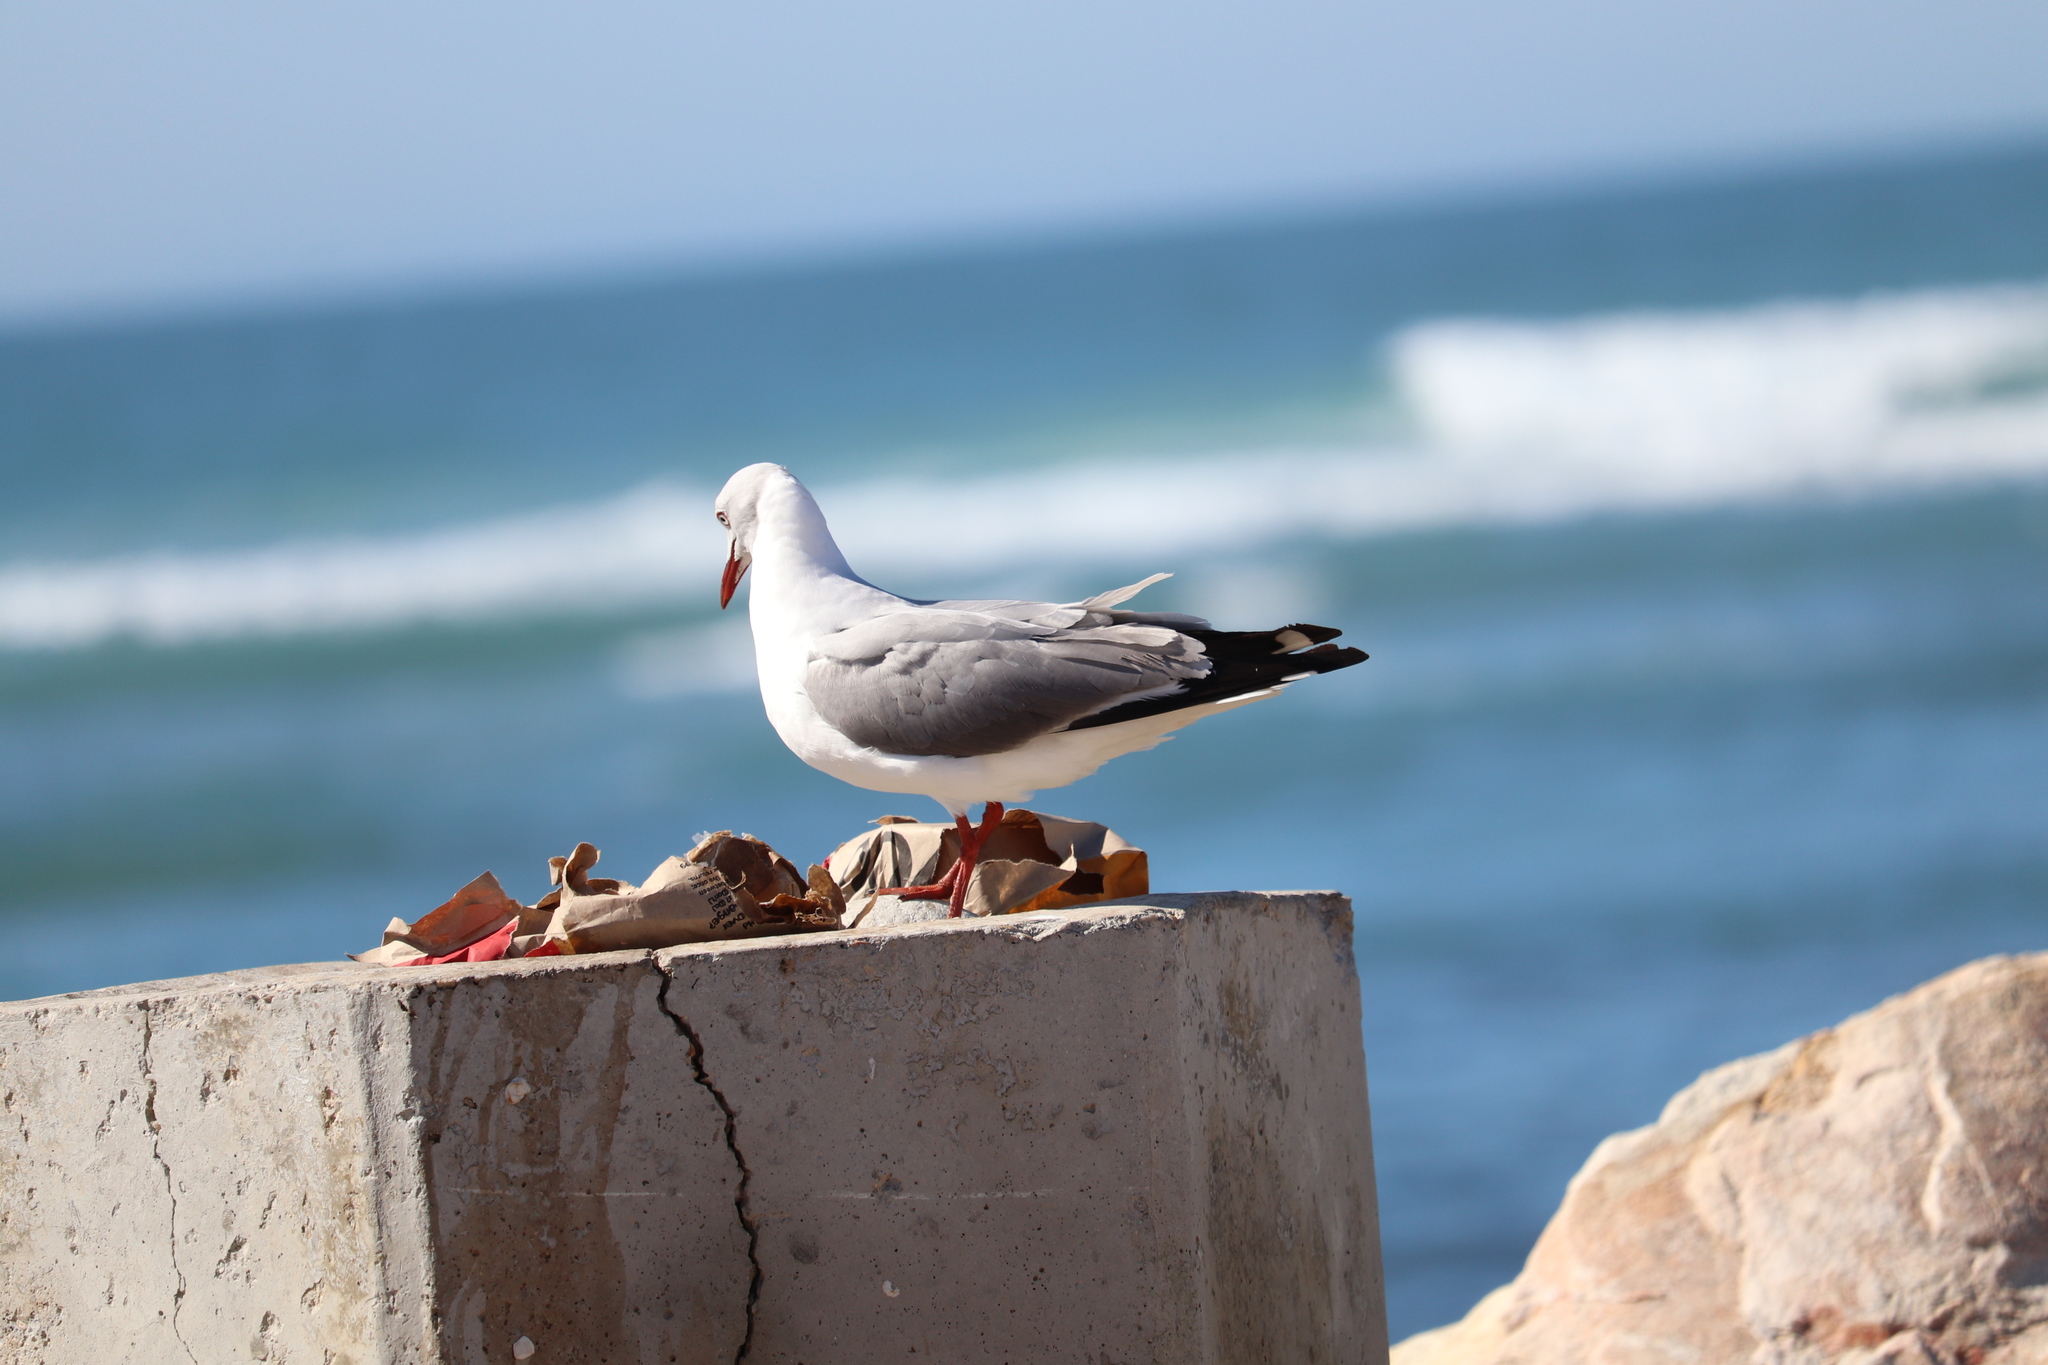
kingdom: Animalia
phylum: Chordata
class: Aves
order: Charadriiformes
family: Laridae
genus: Chroicocephalus
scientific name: Chroicocephalus cirrocephalus
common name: Grey-headed gull
